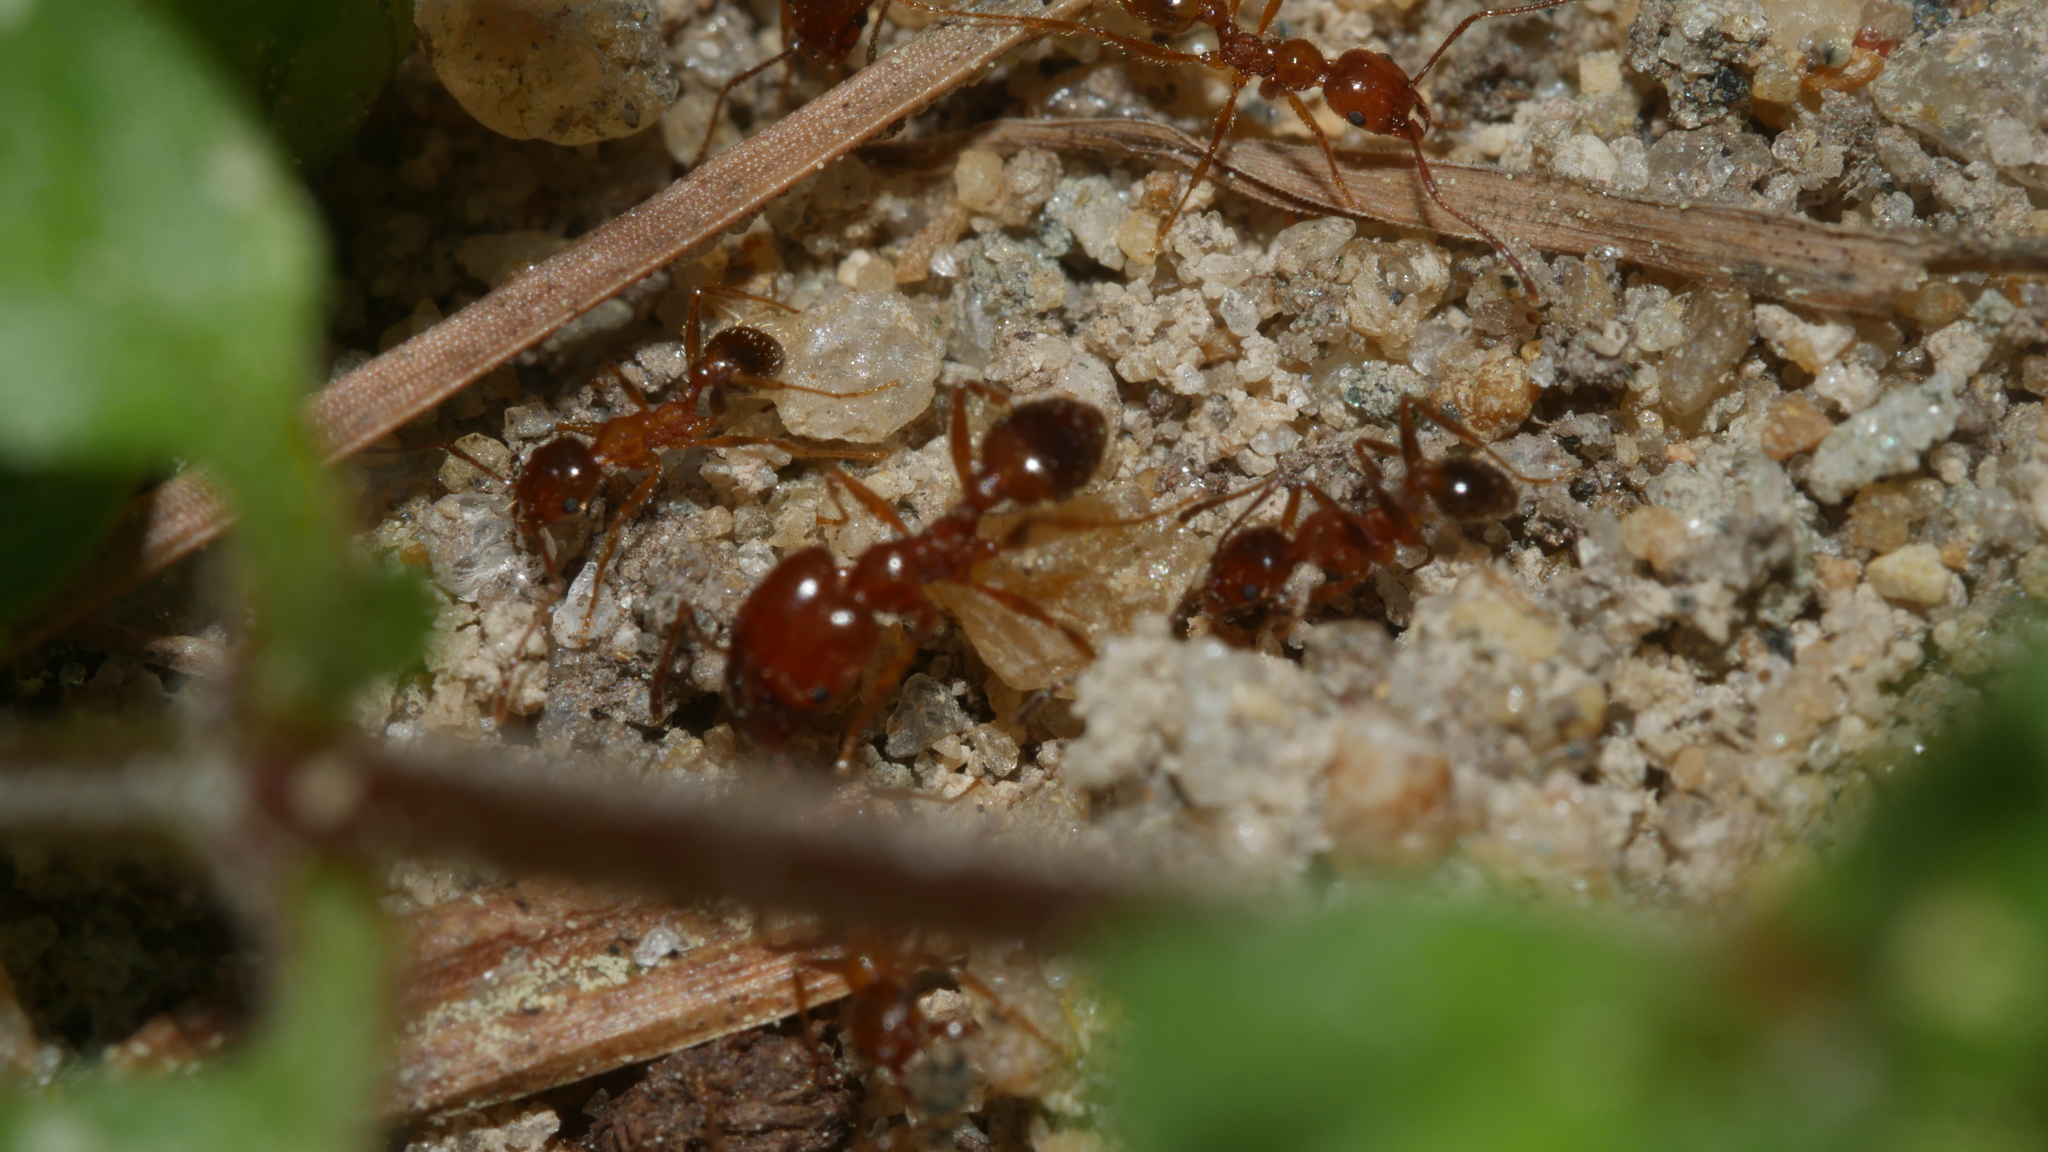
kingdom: Animalia
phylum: Arthropoda
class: Insecta
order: Hymenoptera
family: Formicidae
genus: Pheidole
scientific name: Pheidole dentata
